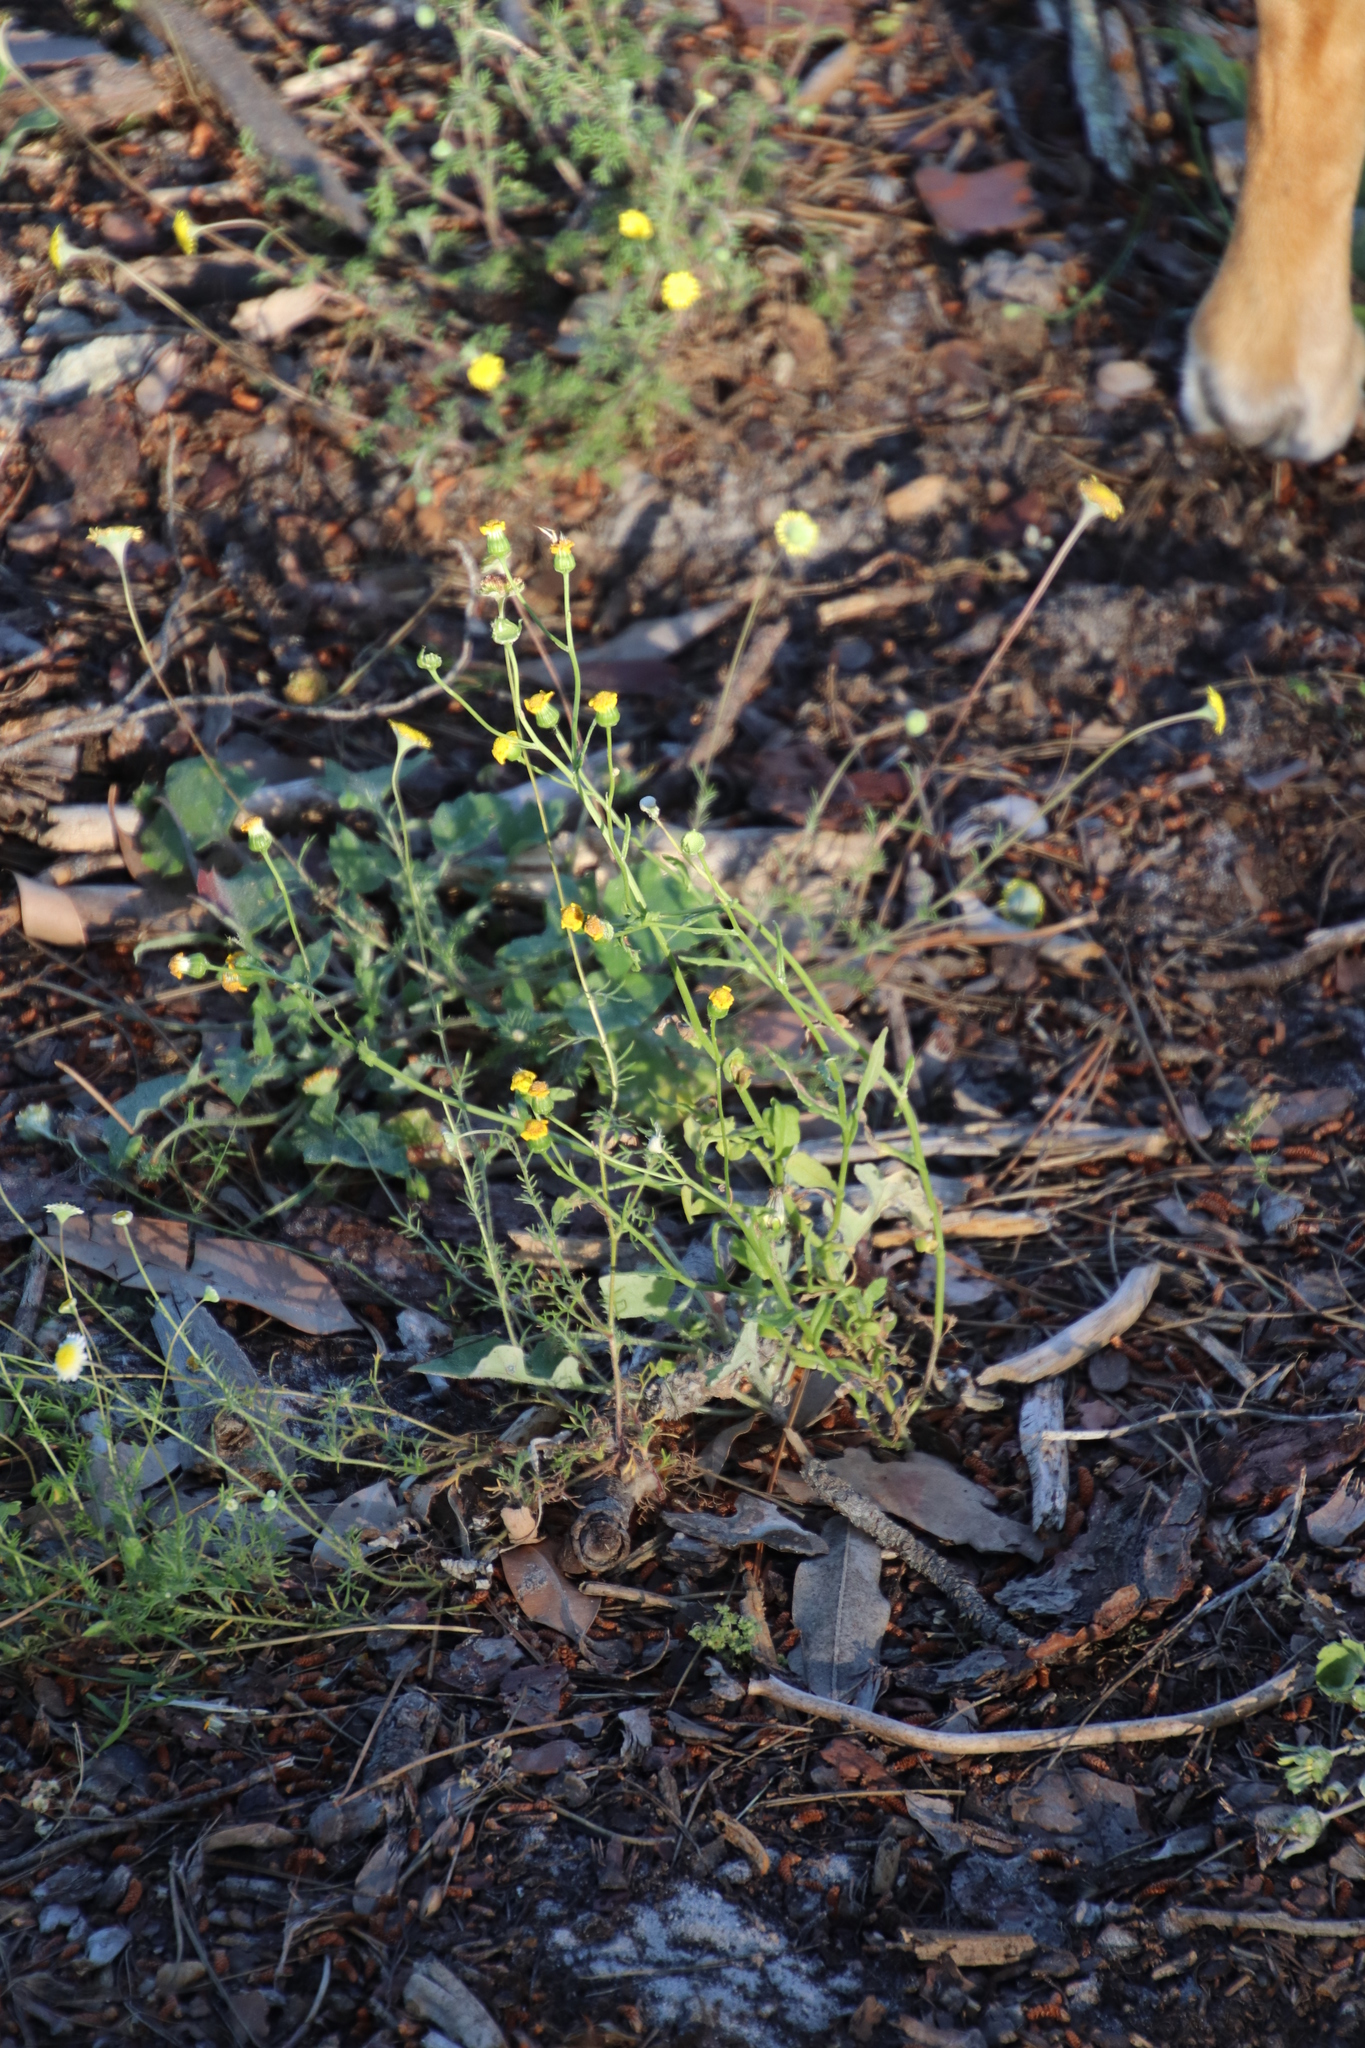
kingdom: Plantae
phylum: Tracheophyta
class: Magnoliopsida
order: Asterales
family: Asteraceae
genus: Senecio
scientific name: Senecio littoreus
